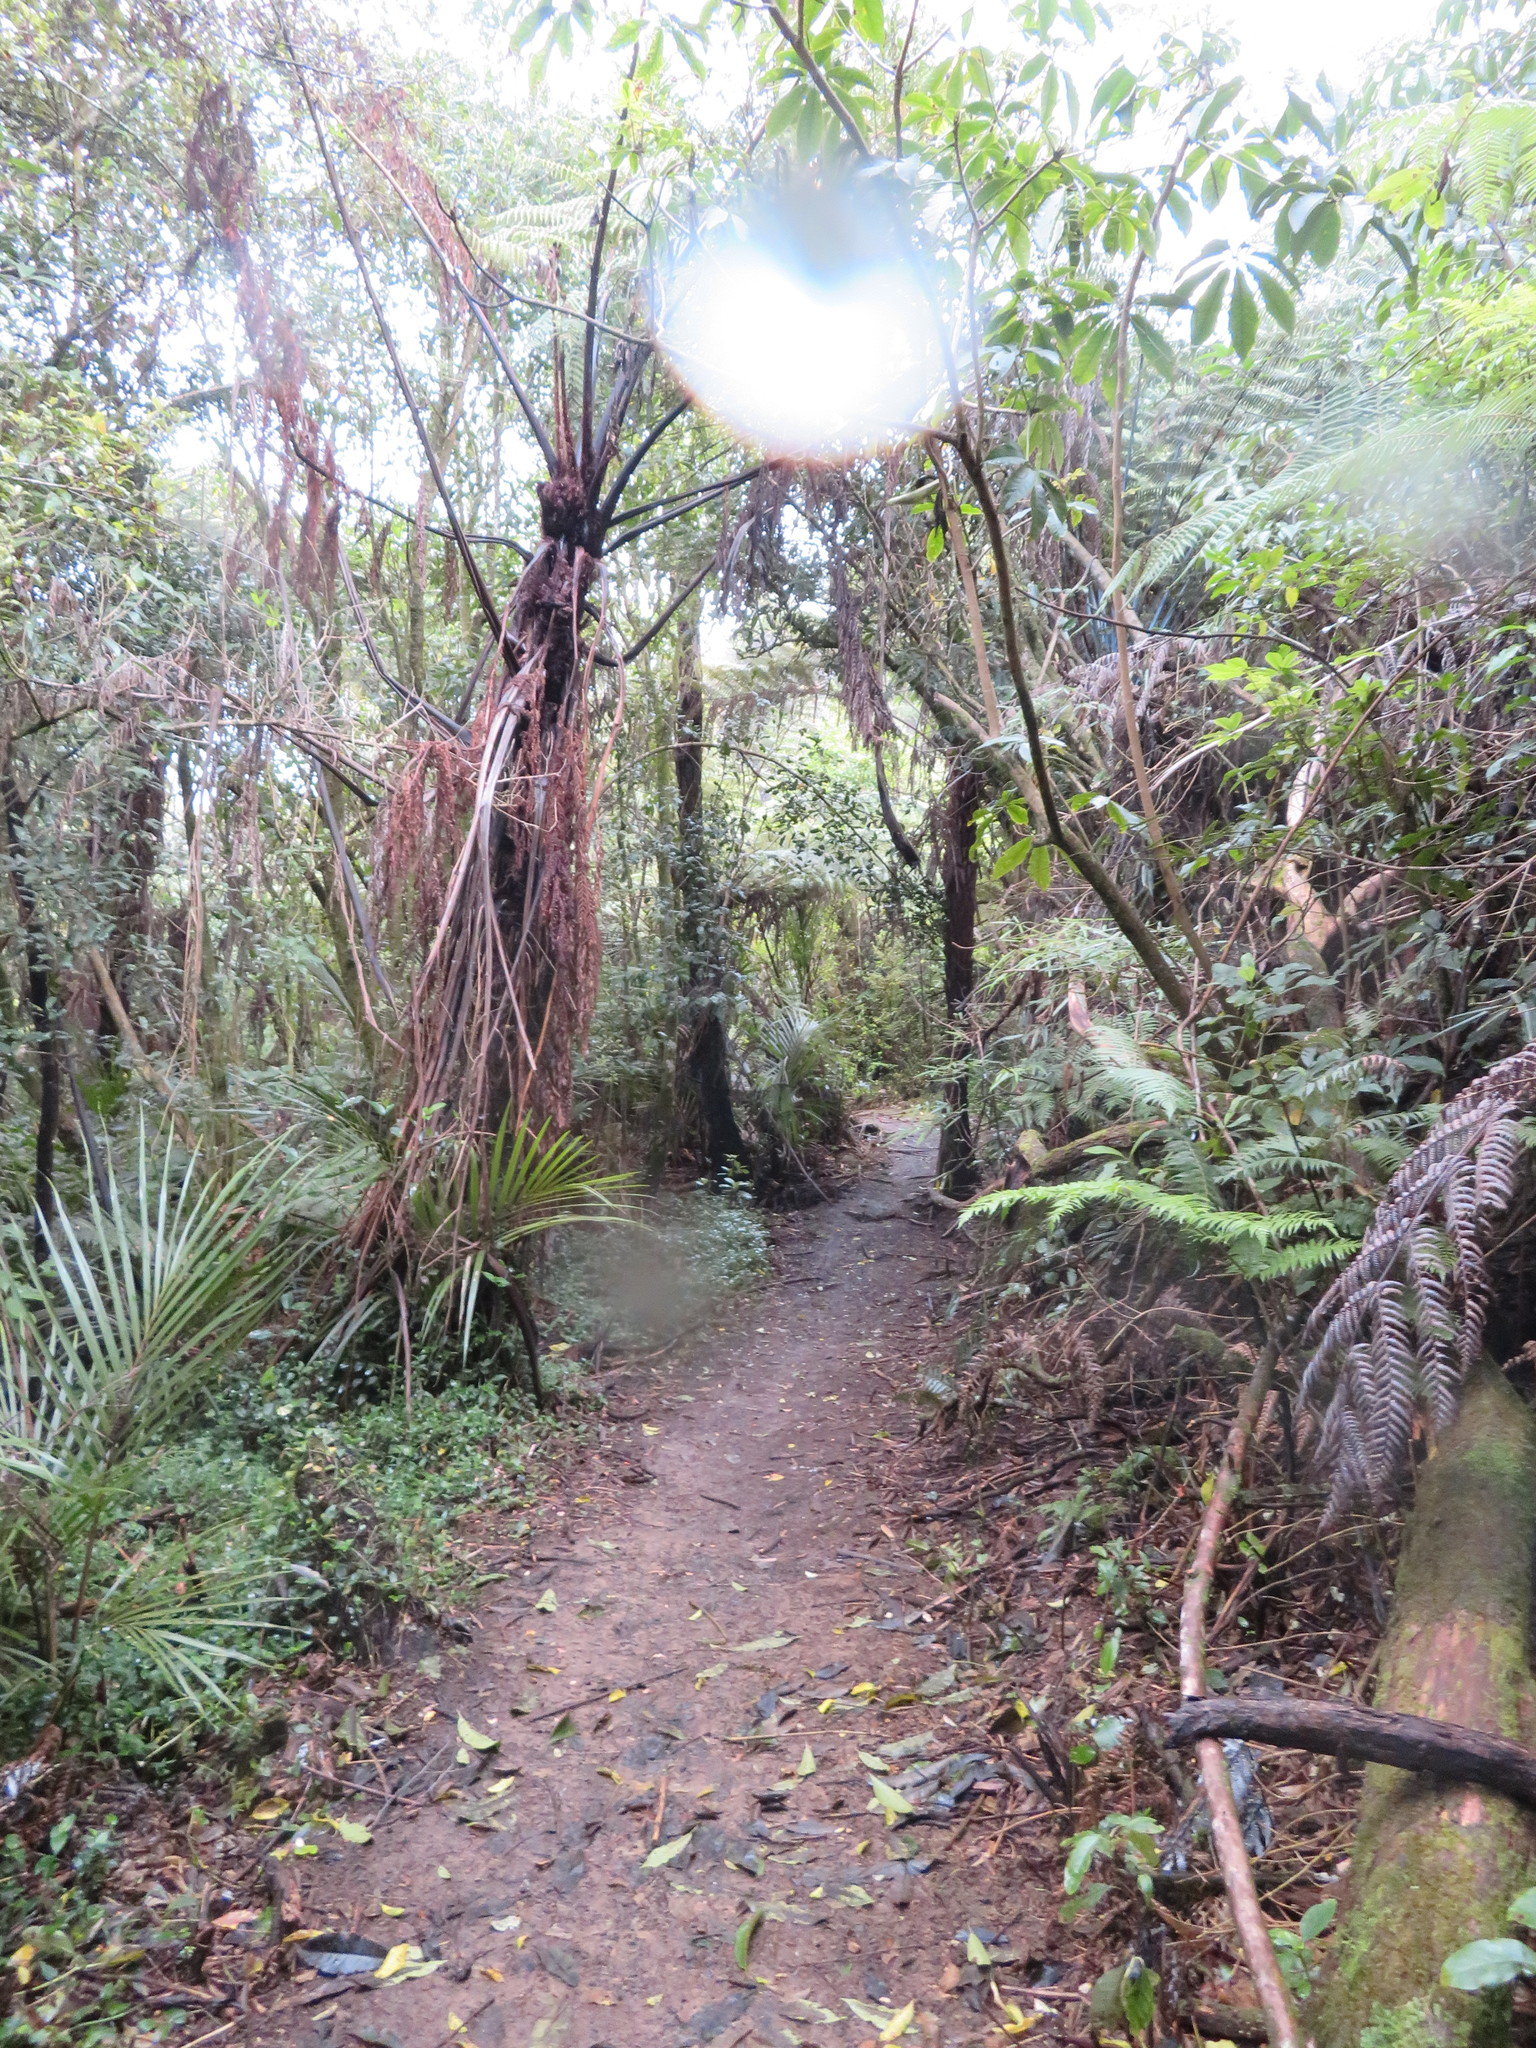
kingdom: Plantae
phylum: Tracheophyta
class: Liliopsida
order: Commelinales
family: Commelinaceae
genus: Tradescantia
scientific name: Tradescantia fluminensis
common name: Wandering-jew
